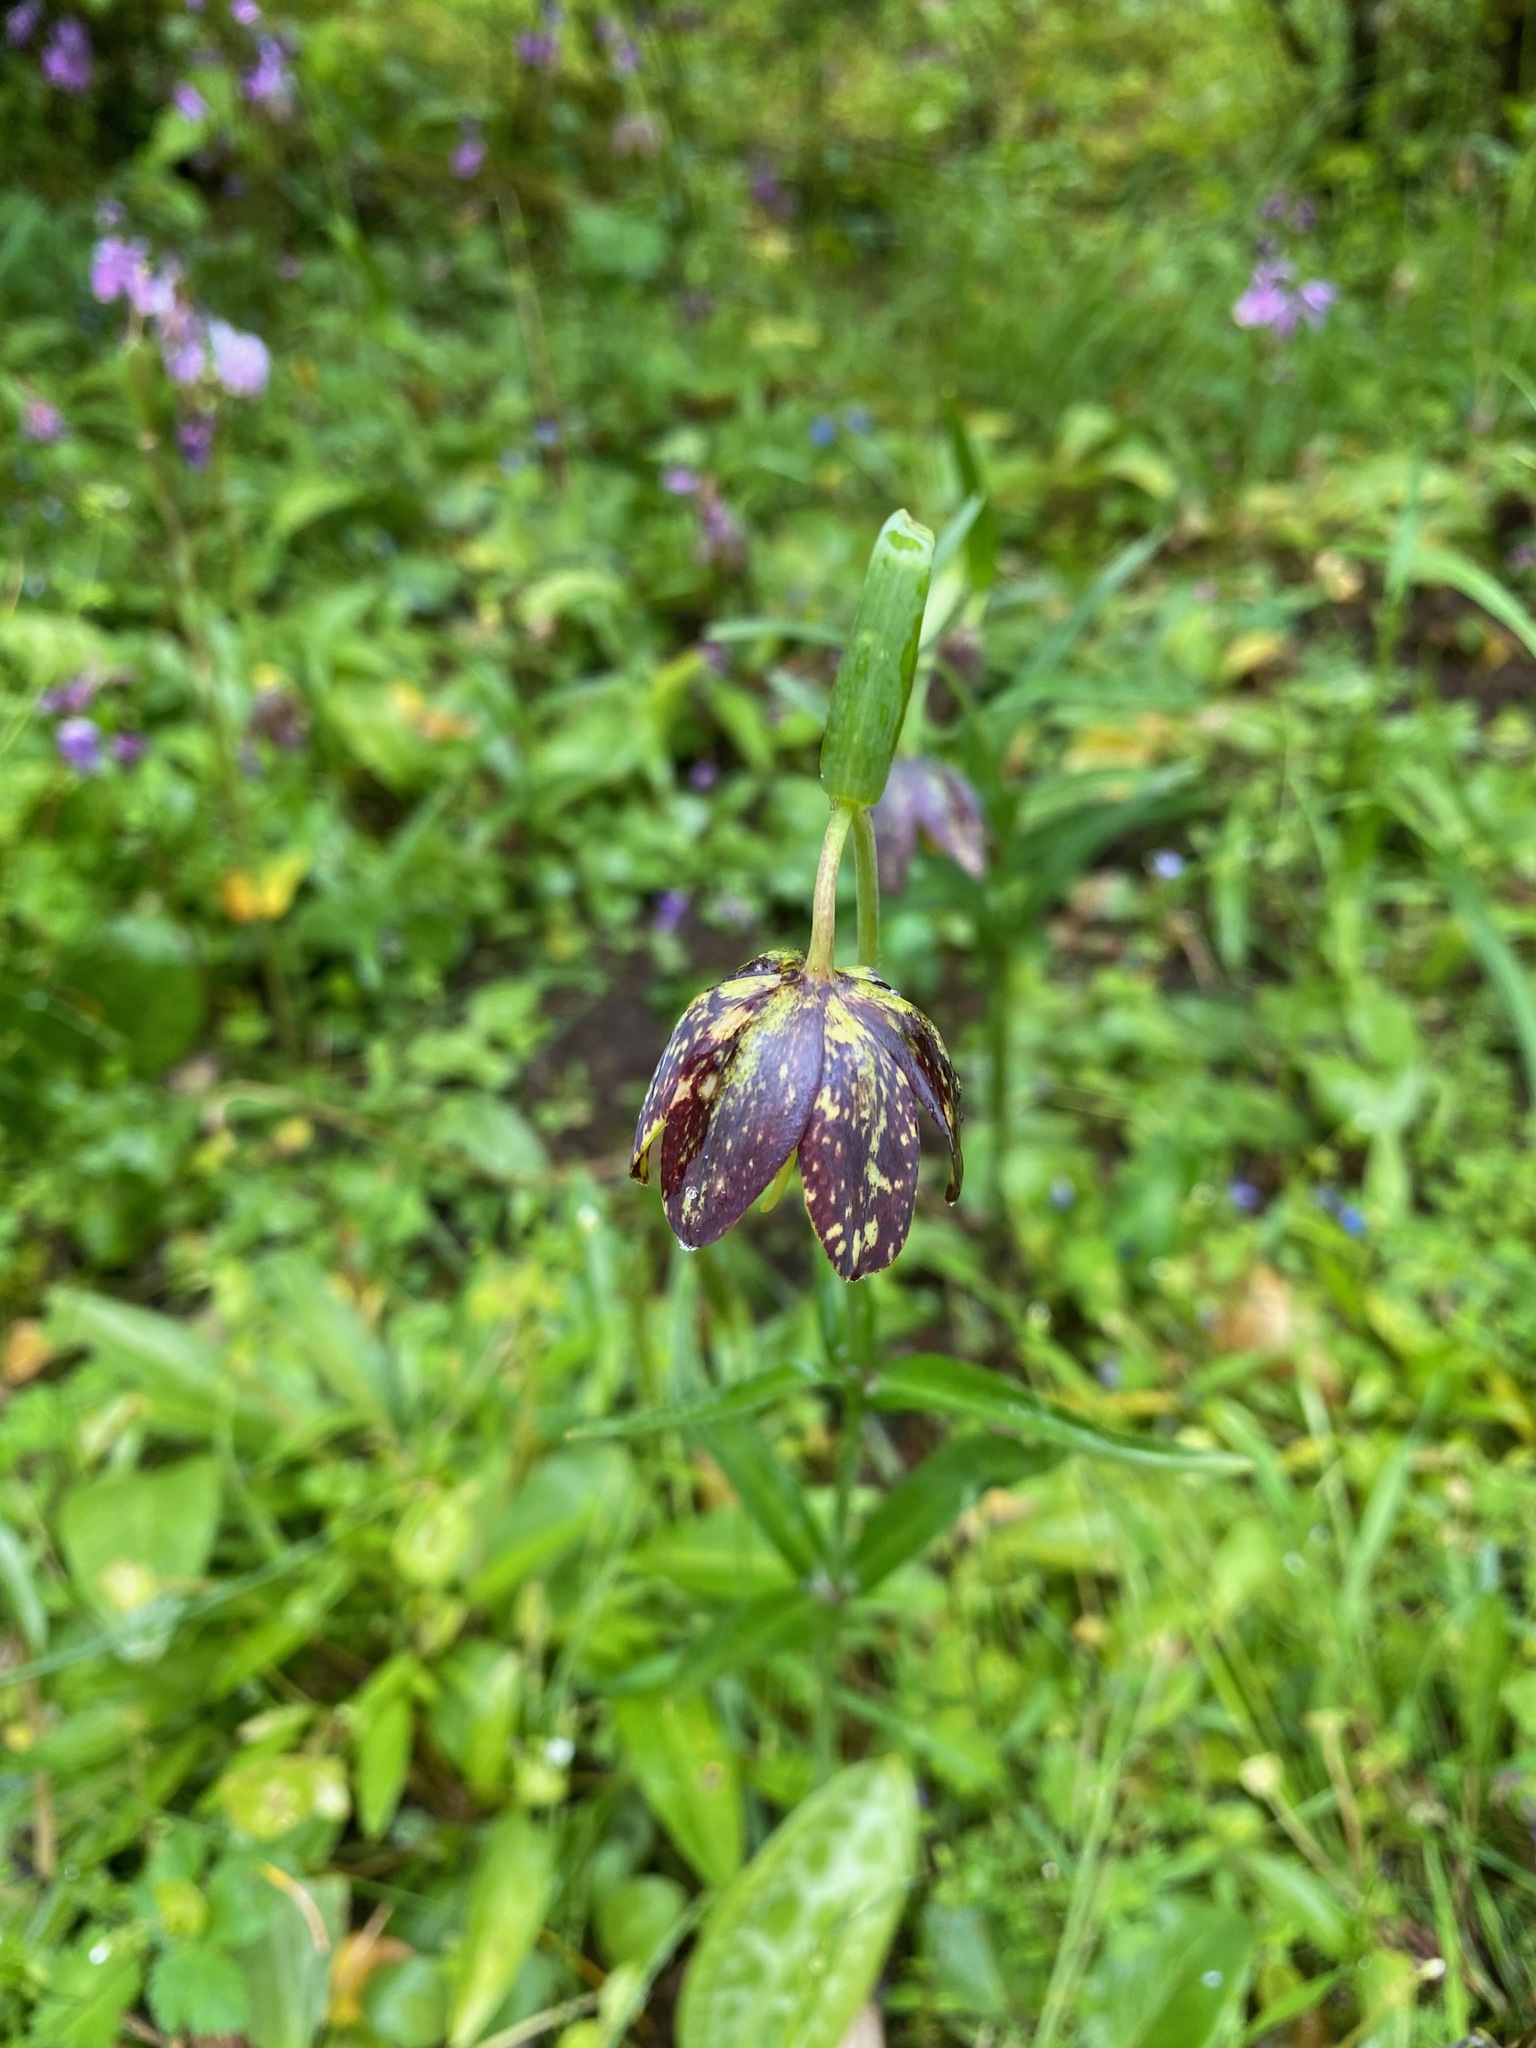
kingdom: Plantae
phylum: Tracheophyta
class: Liliopsida
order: Liliales
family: Liliaceae
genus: Fritillaria
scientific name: Fritillaria affinis
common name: Ojai fritillary
